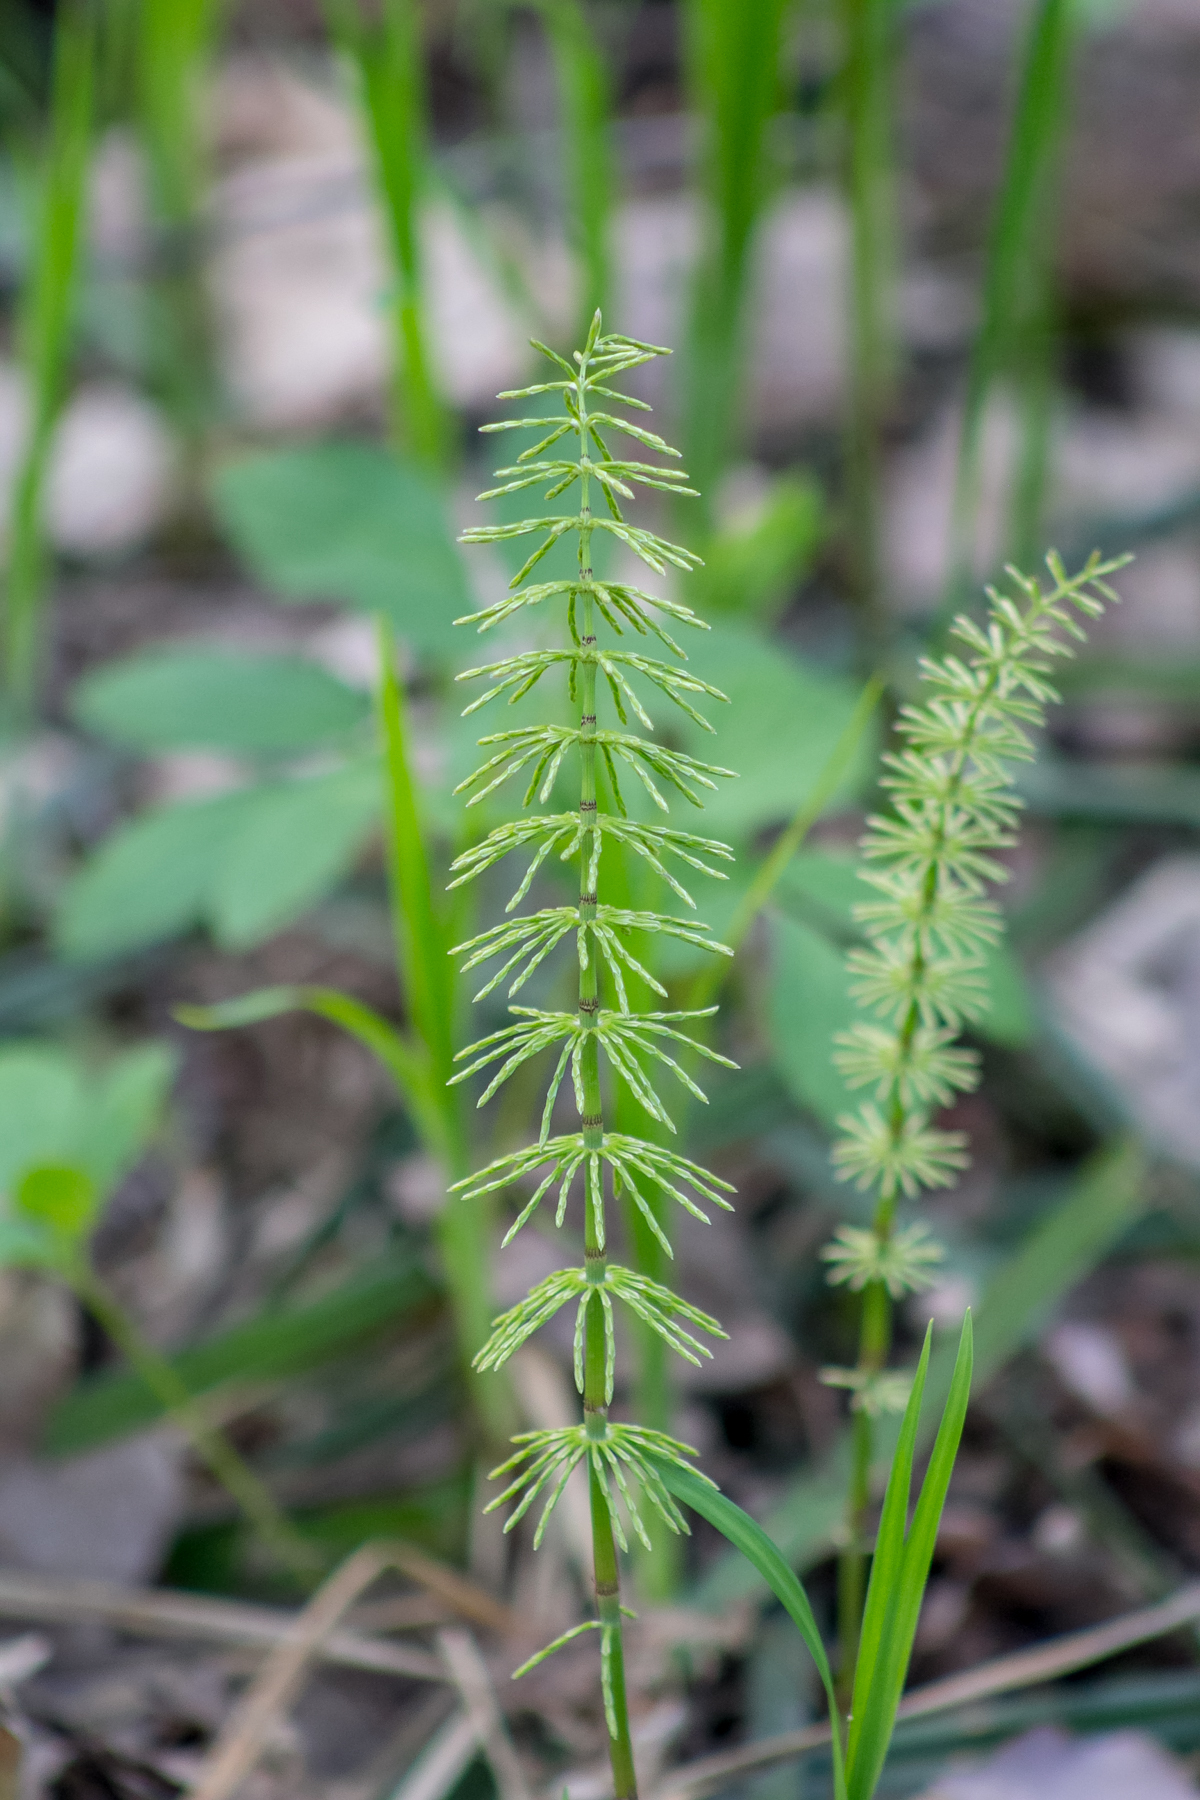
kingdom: Plantae
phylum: Tracheophyta
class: Polypodiopsida
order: Equisetales
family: Equisetaceae
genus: Equisetum
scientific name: Equisetum pratense
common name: Meadow horsetail
